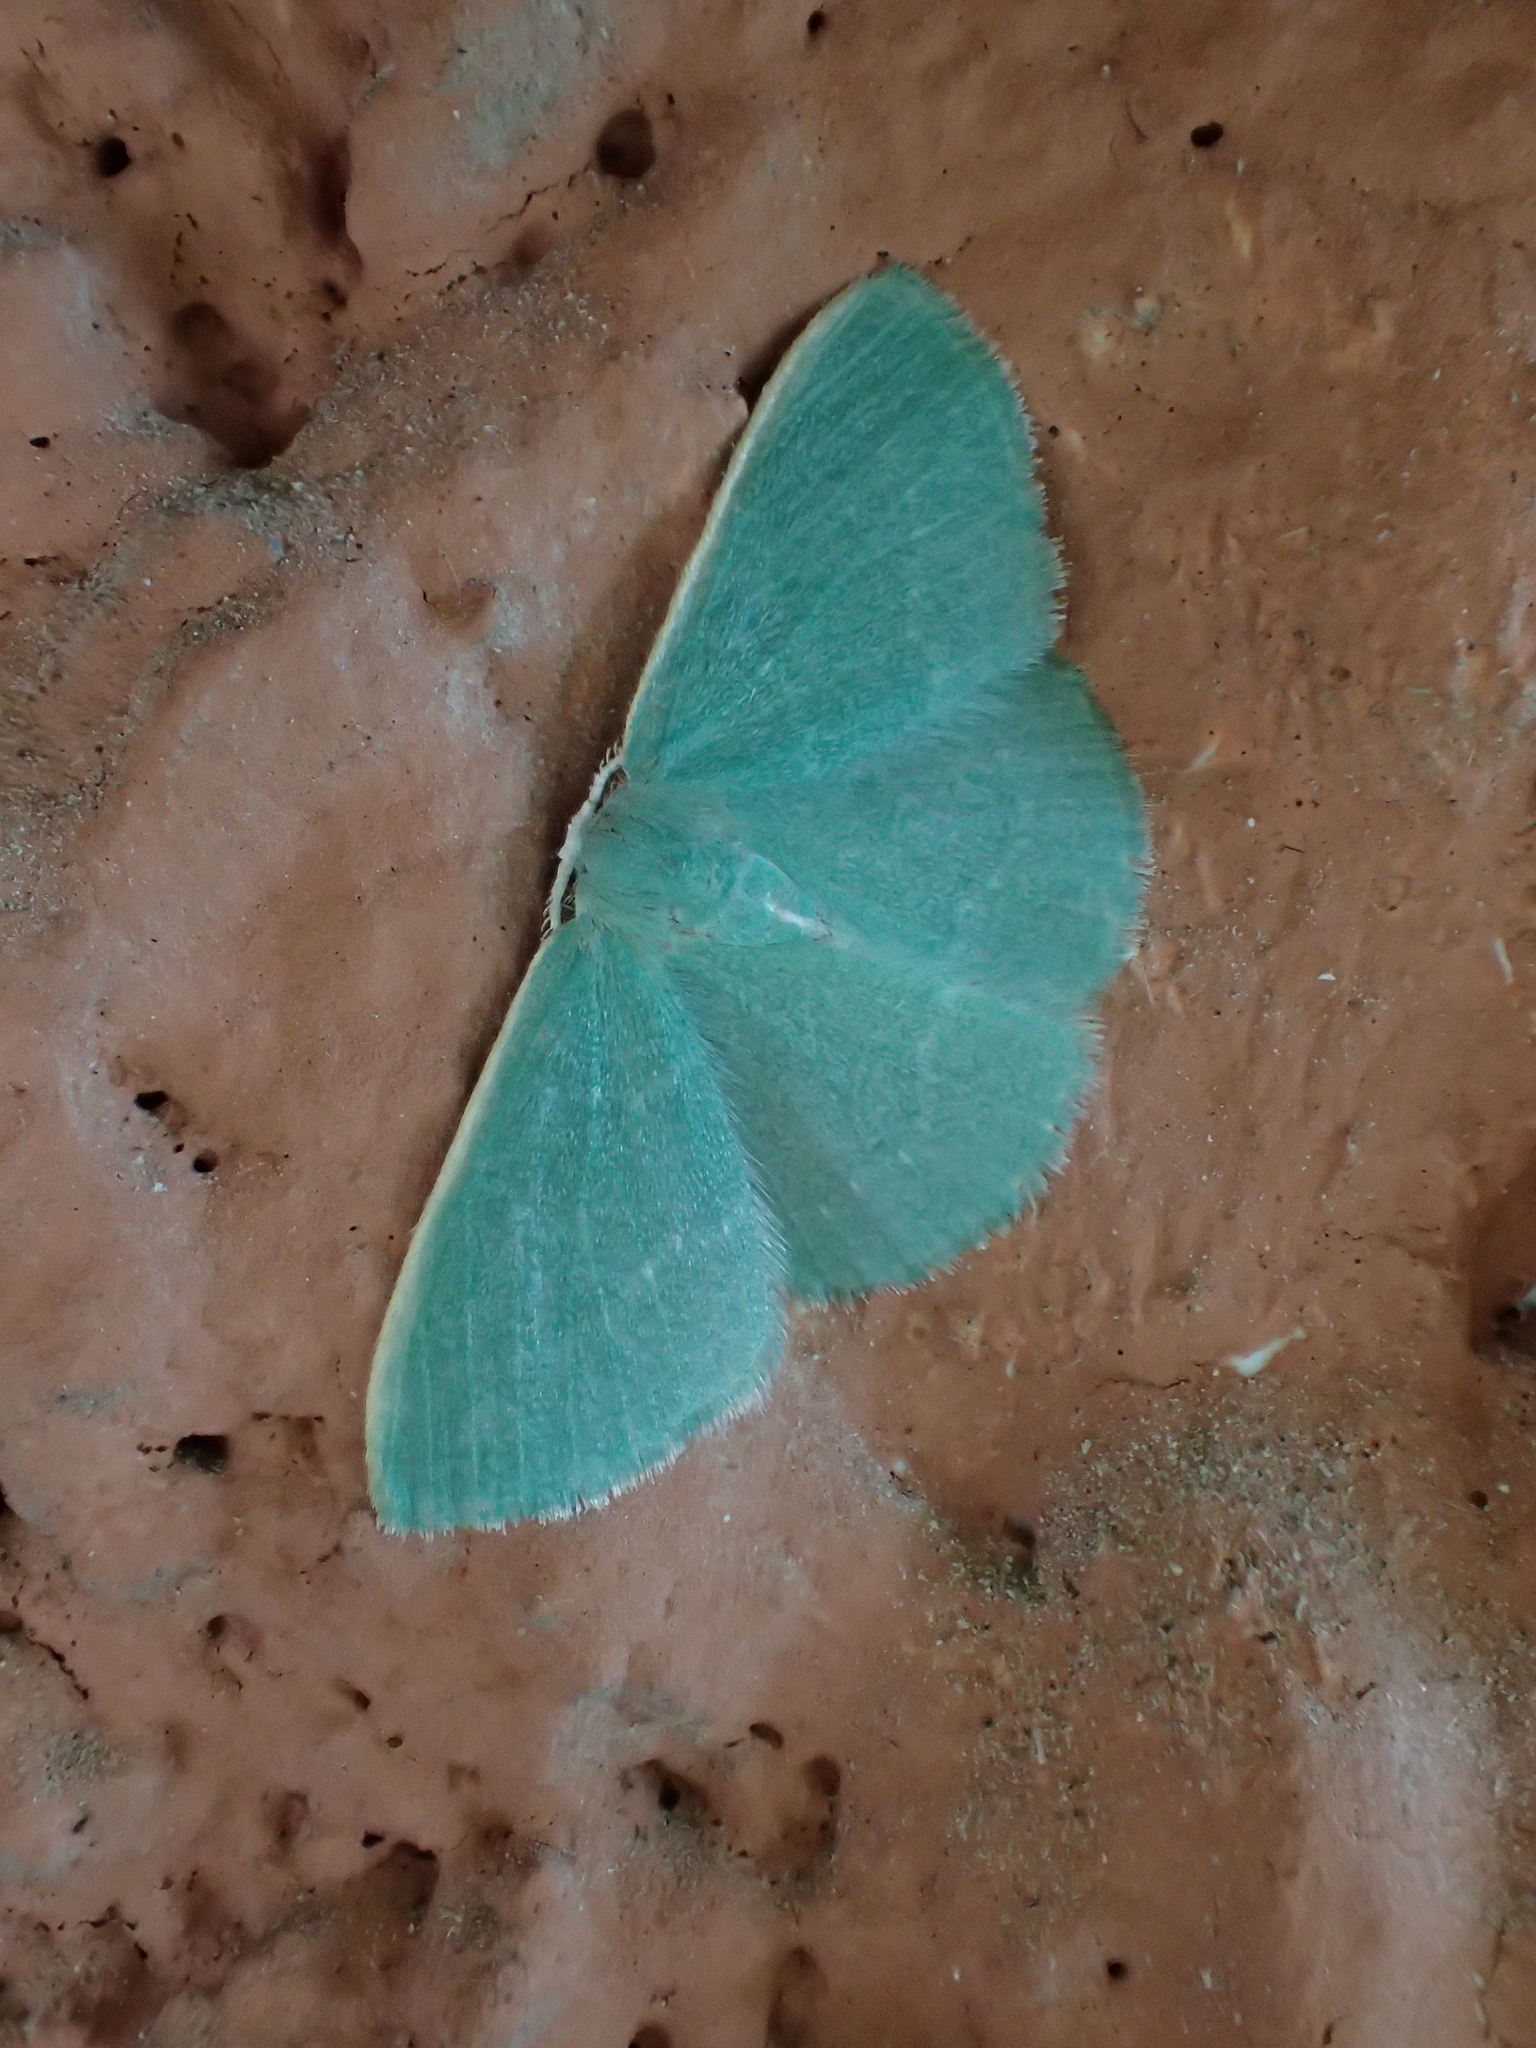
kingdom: Animalia
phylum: Arthropoda
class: Insecta
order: Lepidoptera
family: Geometridae
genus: Xenochlorodes
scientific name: Xenochlorodes olympiaria
